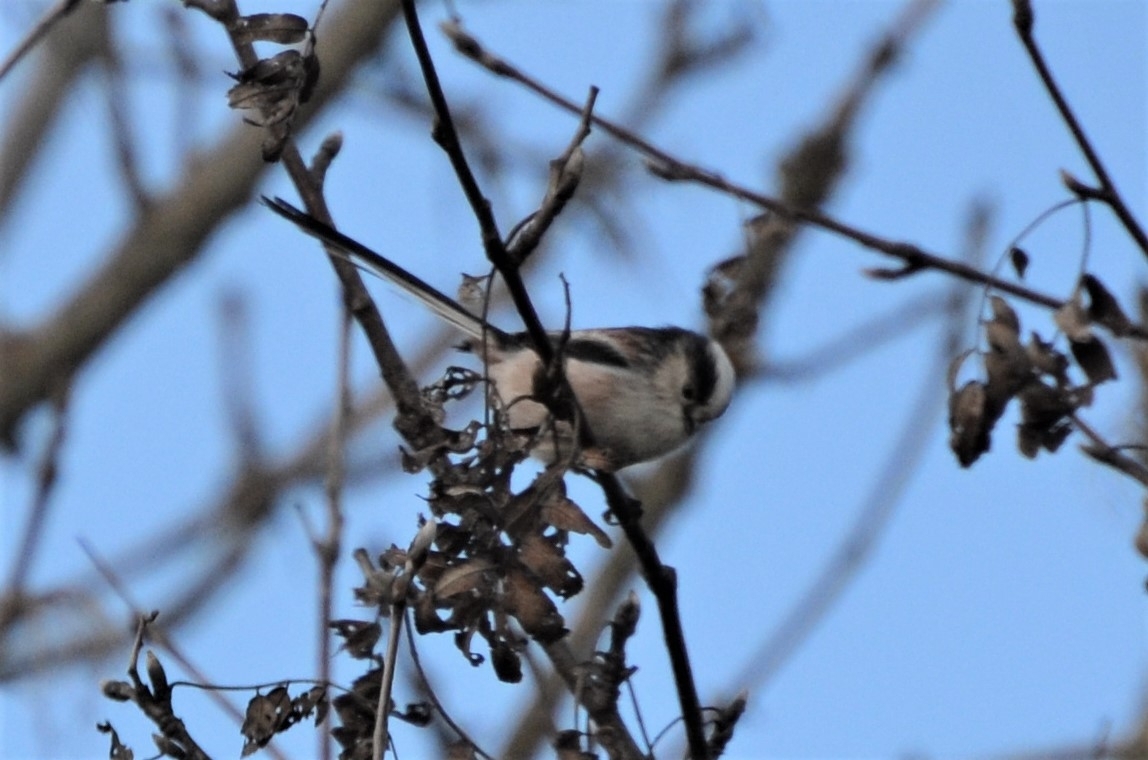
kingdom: Animalia
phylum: Chordata
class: Aves
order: Passeriformes
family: Aegithalidae
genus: Aegithalos
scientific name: Aegithalos caudatus
